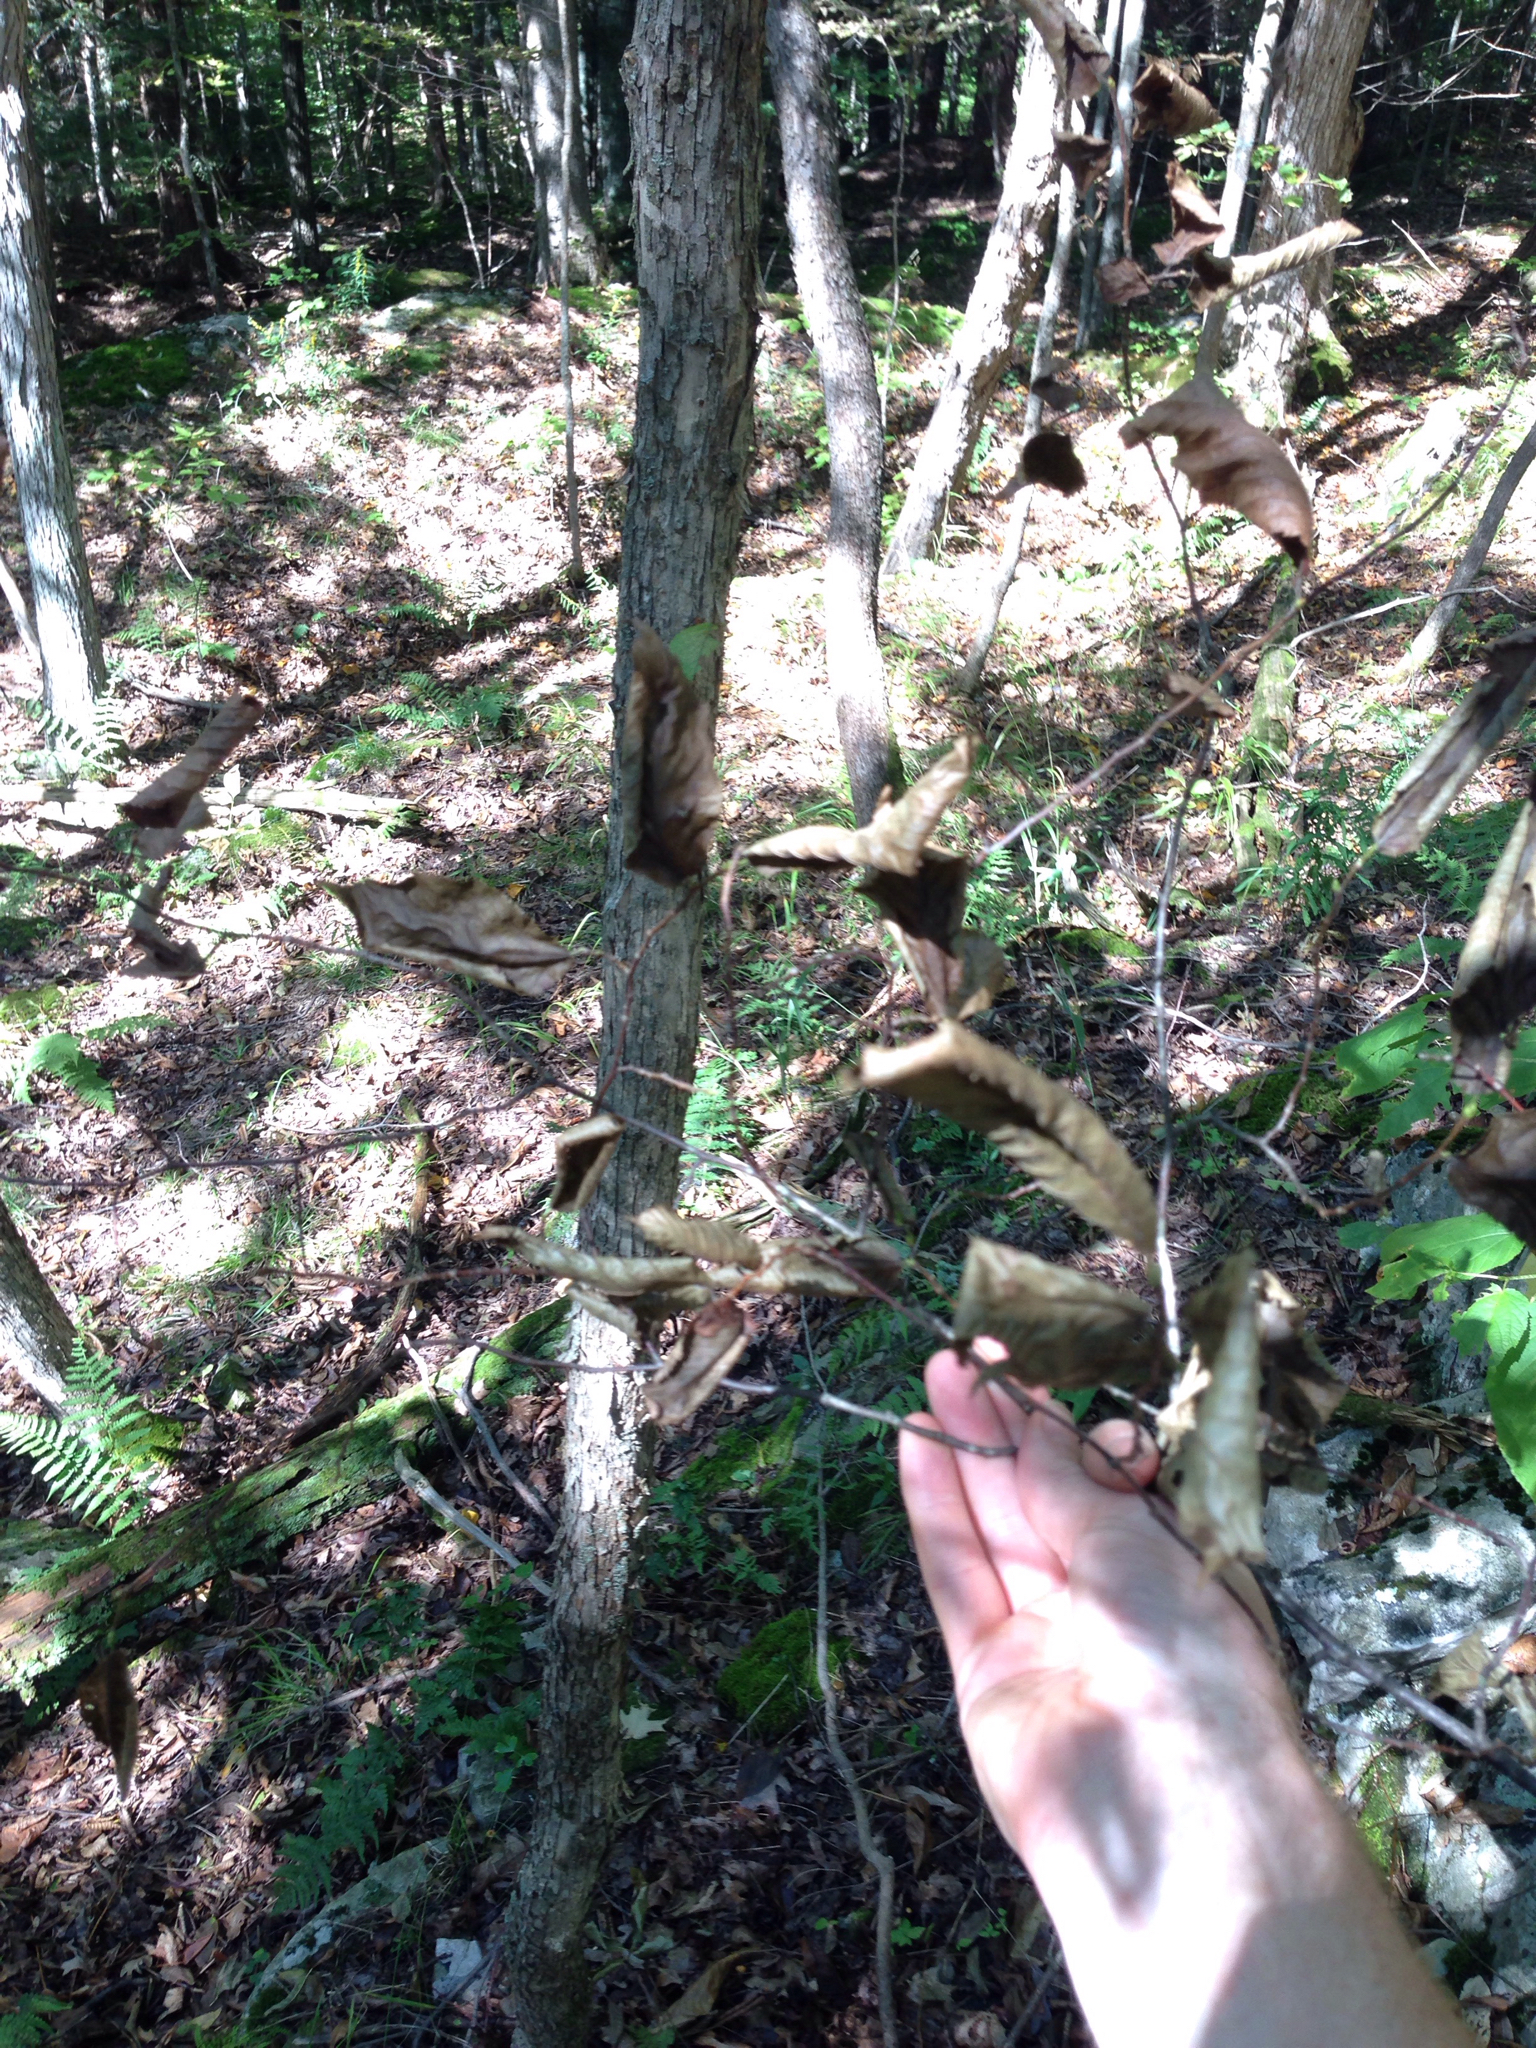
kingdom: Plantae
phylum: Tracheophyta
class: Magnoliopsida
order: Fagales
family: Betulaceae
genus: Ostrya
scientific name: Ostrya virginiana
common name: Ironwood
